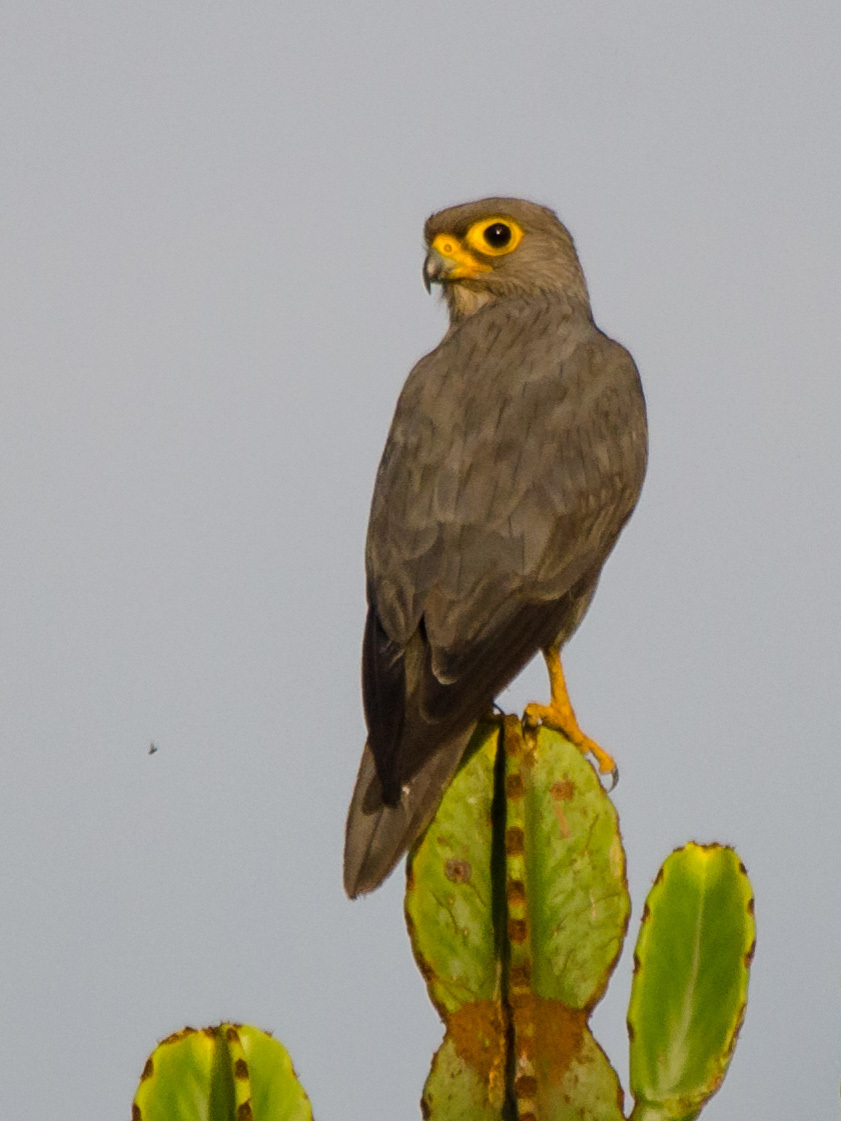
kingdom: Animalia
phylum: Chordata
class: Aves
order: Falconiformes
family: Falconidae
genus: Falco
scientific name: Falco ardosiaceus
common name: Grey kestrel
